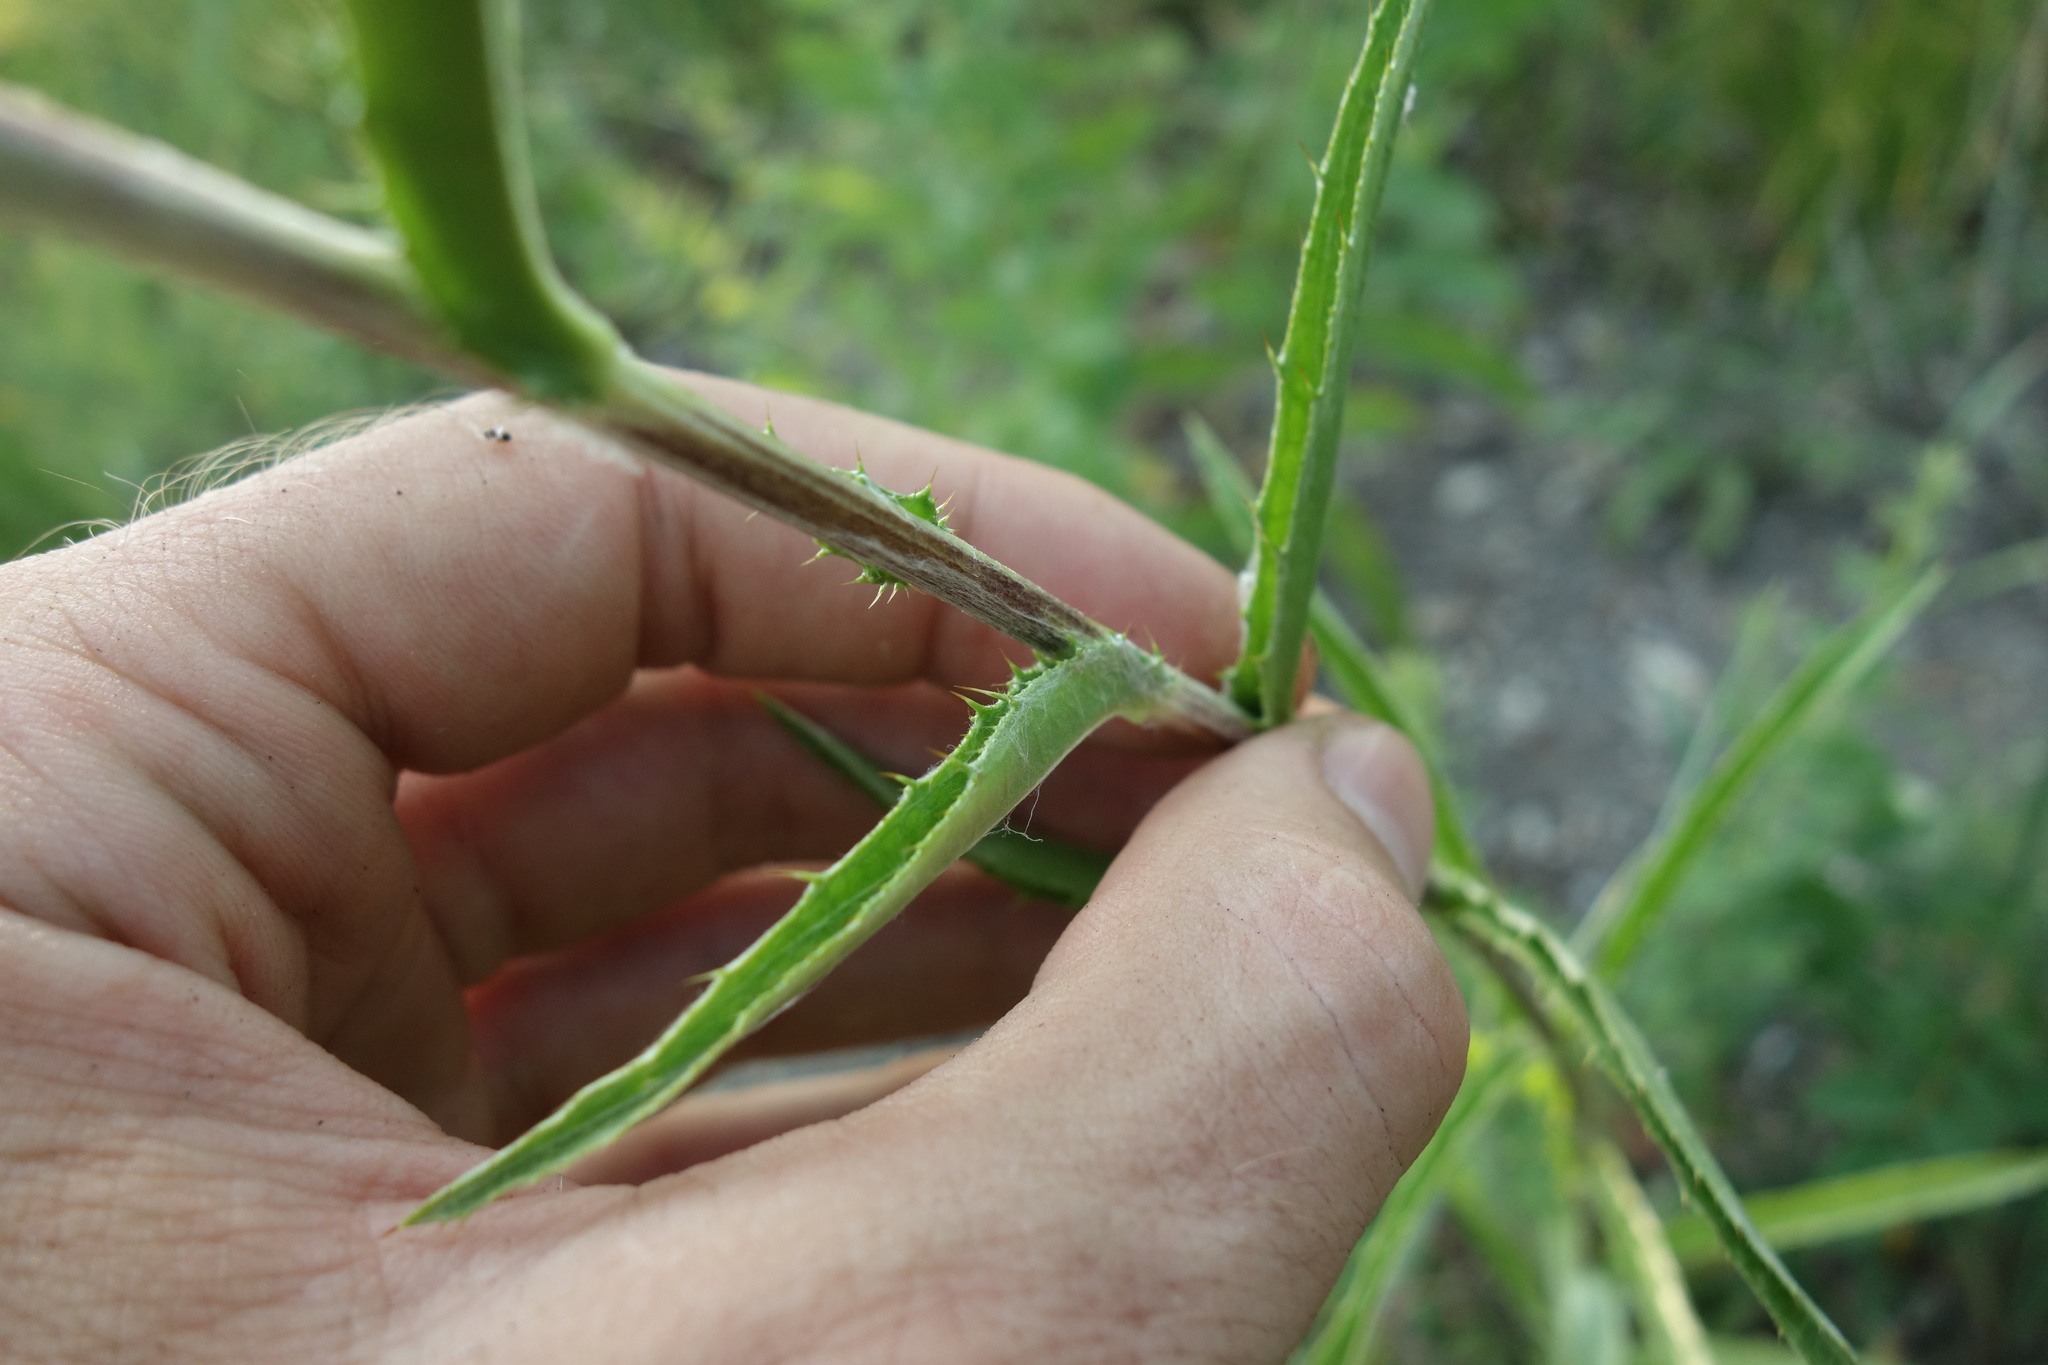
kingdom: Plantae
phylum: Tracheophyta
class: Magnoliopsida
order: Asterales
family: Asteraceae
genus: Carlina
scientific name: Carlina biebersteinii
